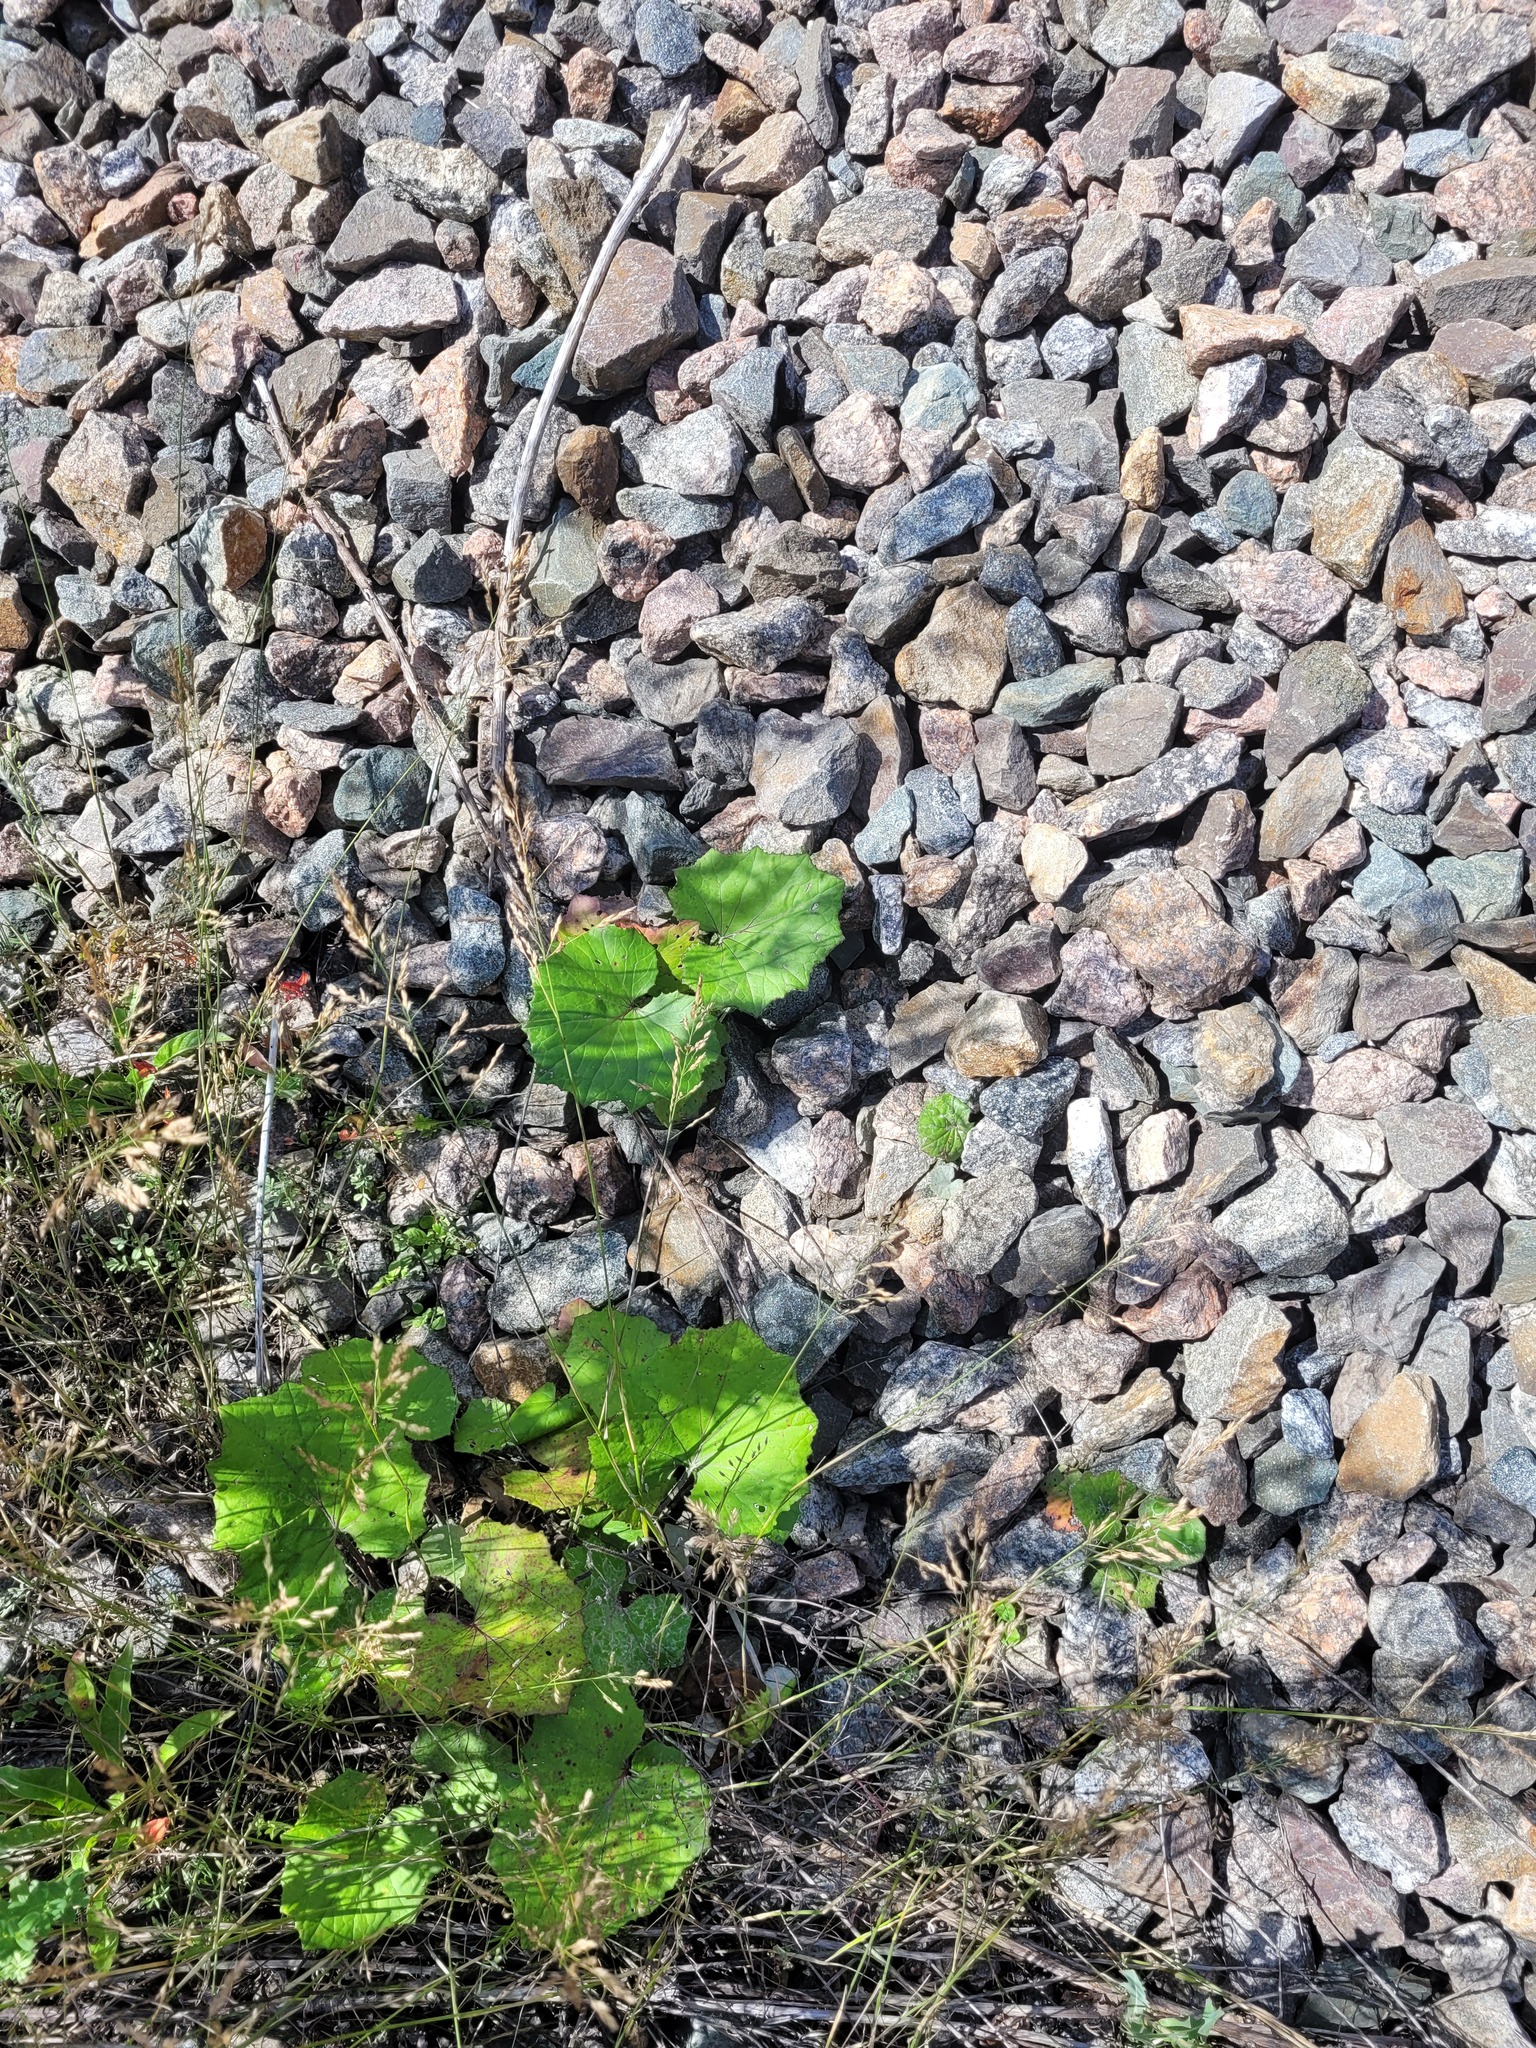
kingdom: Plantae
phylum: Tracheophyta
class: Magnoliopsida
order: Asterales
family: Asteraceae
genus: Tussilago
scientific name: Tussilago farfara
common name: Coltsfoot
